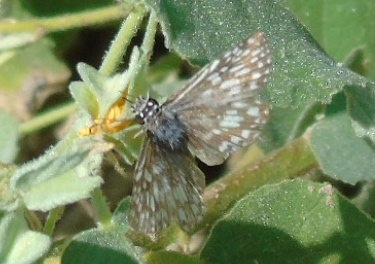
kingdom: Animalia
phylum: Arthropoda
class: Insecta
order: Lepidoptera
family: Hesperiidae
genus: Burnsius
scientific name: Burnsius
